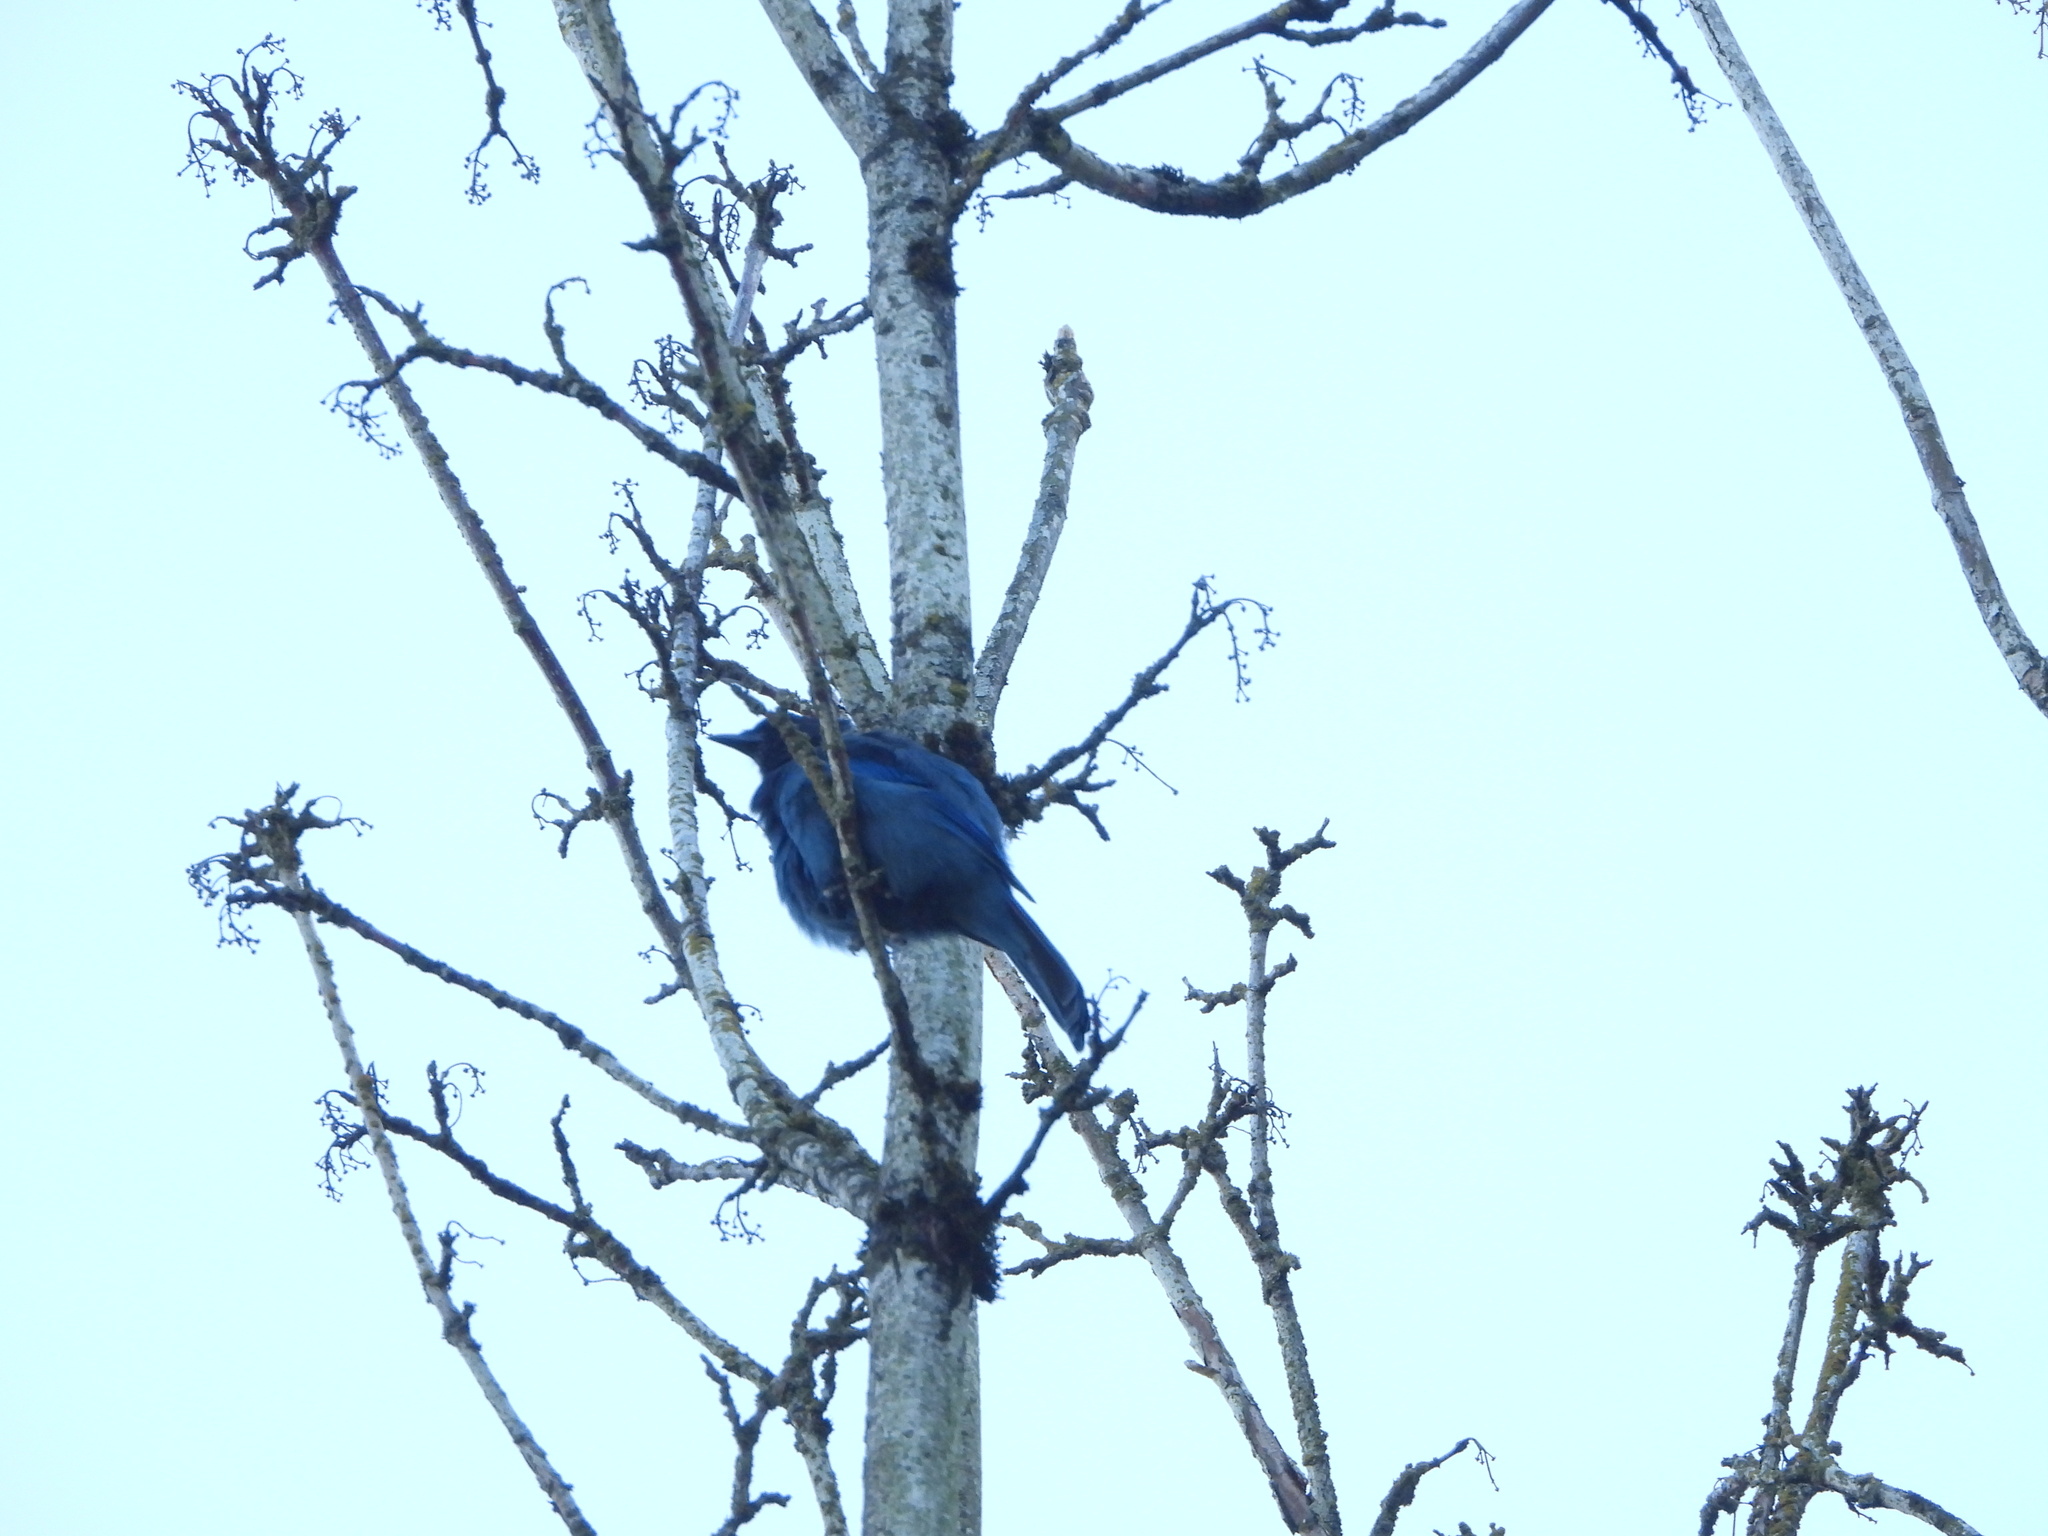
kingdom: Animalia
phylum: Chordata
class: Aves
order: Passeriformes
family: Corvidae
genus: Cyanocitta
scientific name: Cyanocitta stelleri
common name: Steller's jay
